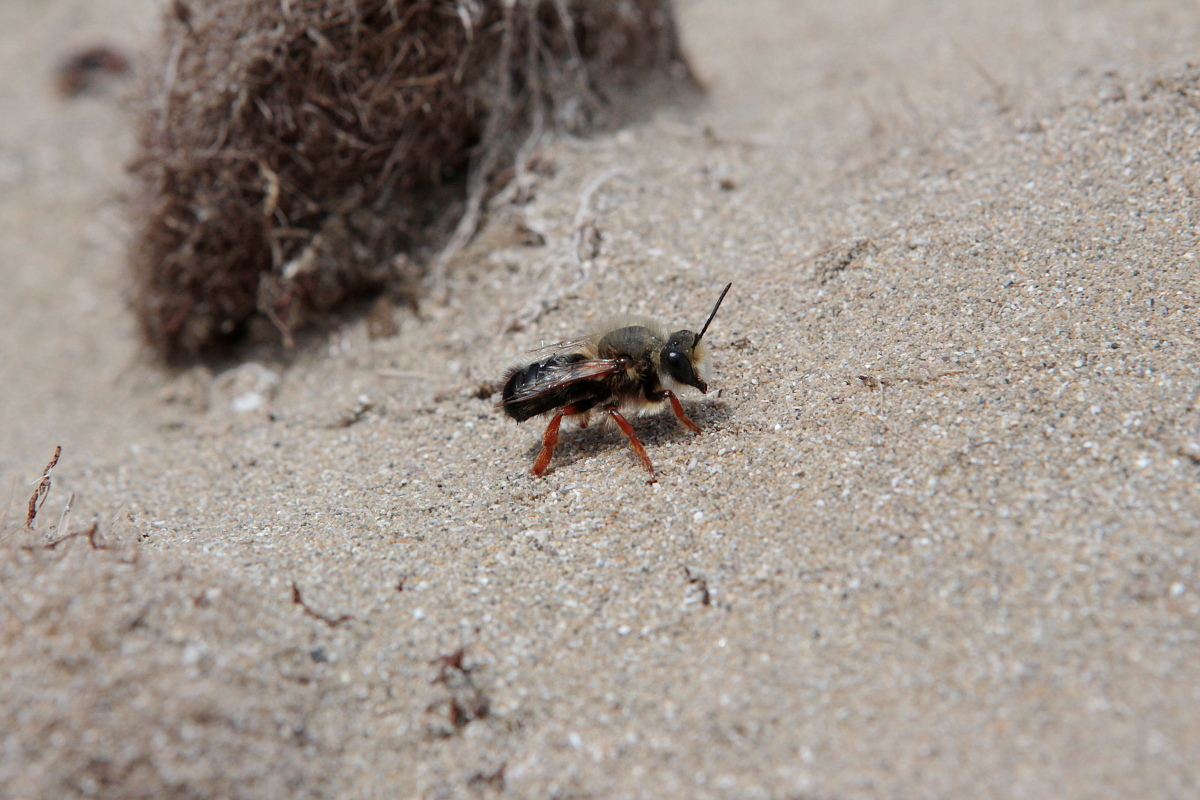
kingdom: Animalia
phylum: Arthropoda
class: Insecta
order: Hymenoptera
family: Megachilidae
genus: Megachile
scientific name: Megachile sicula
